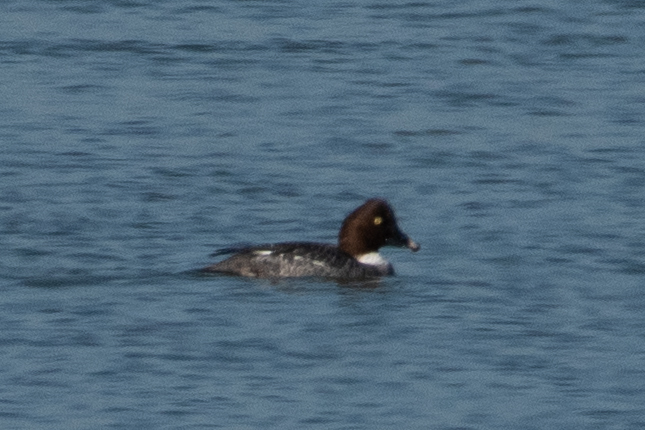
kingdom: Animalia
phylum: Chordata
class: Aves
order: Anseriformes
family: Anatidae
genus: Bucephala
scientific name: Bucephala clangula
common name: Common goldeneye
